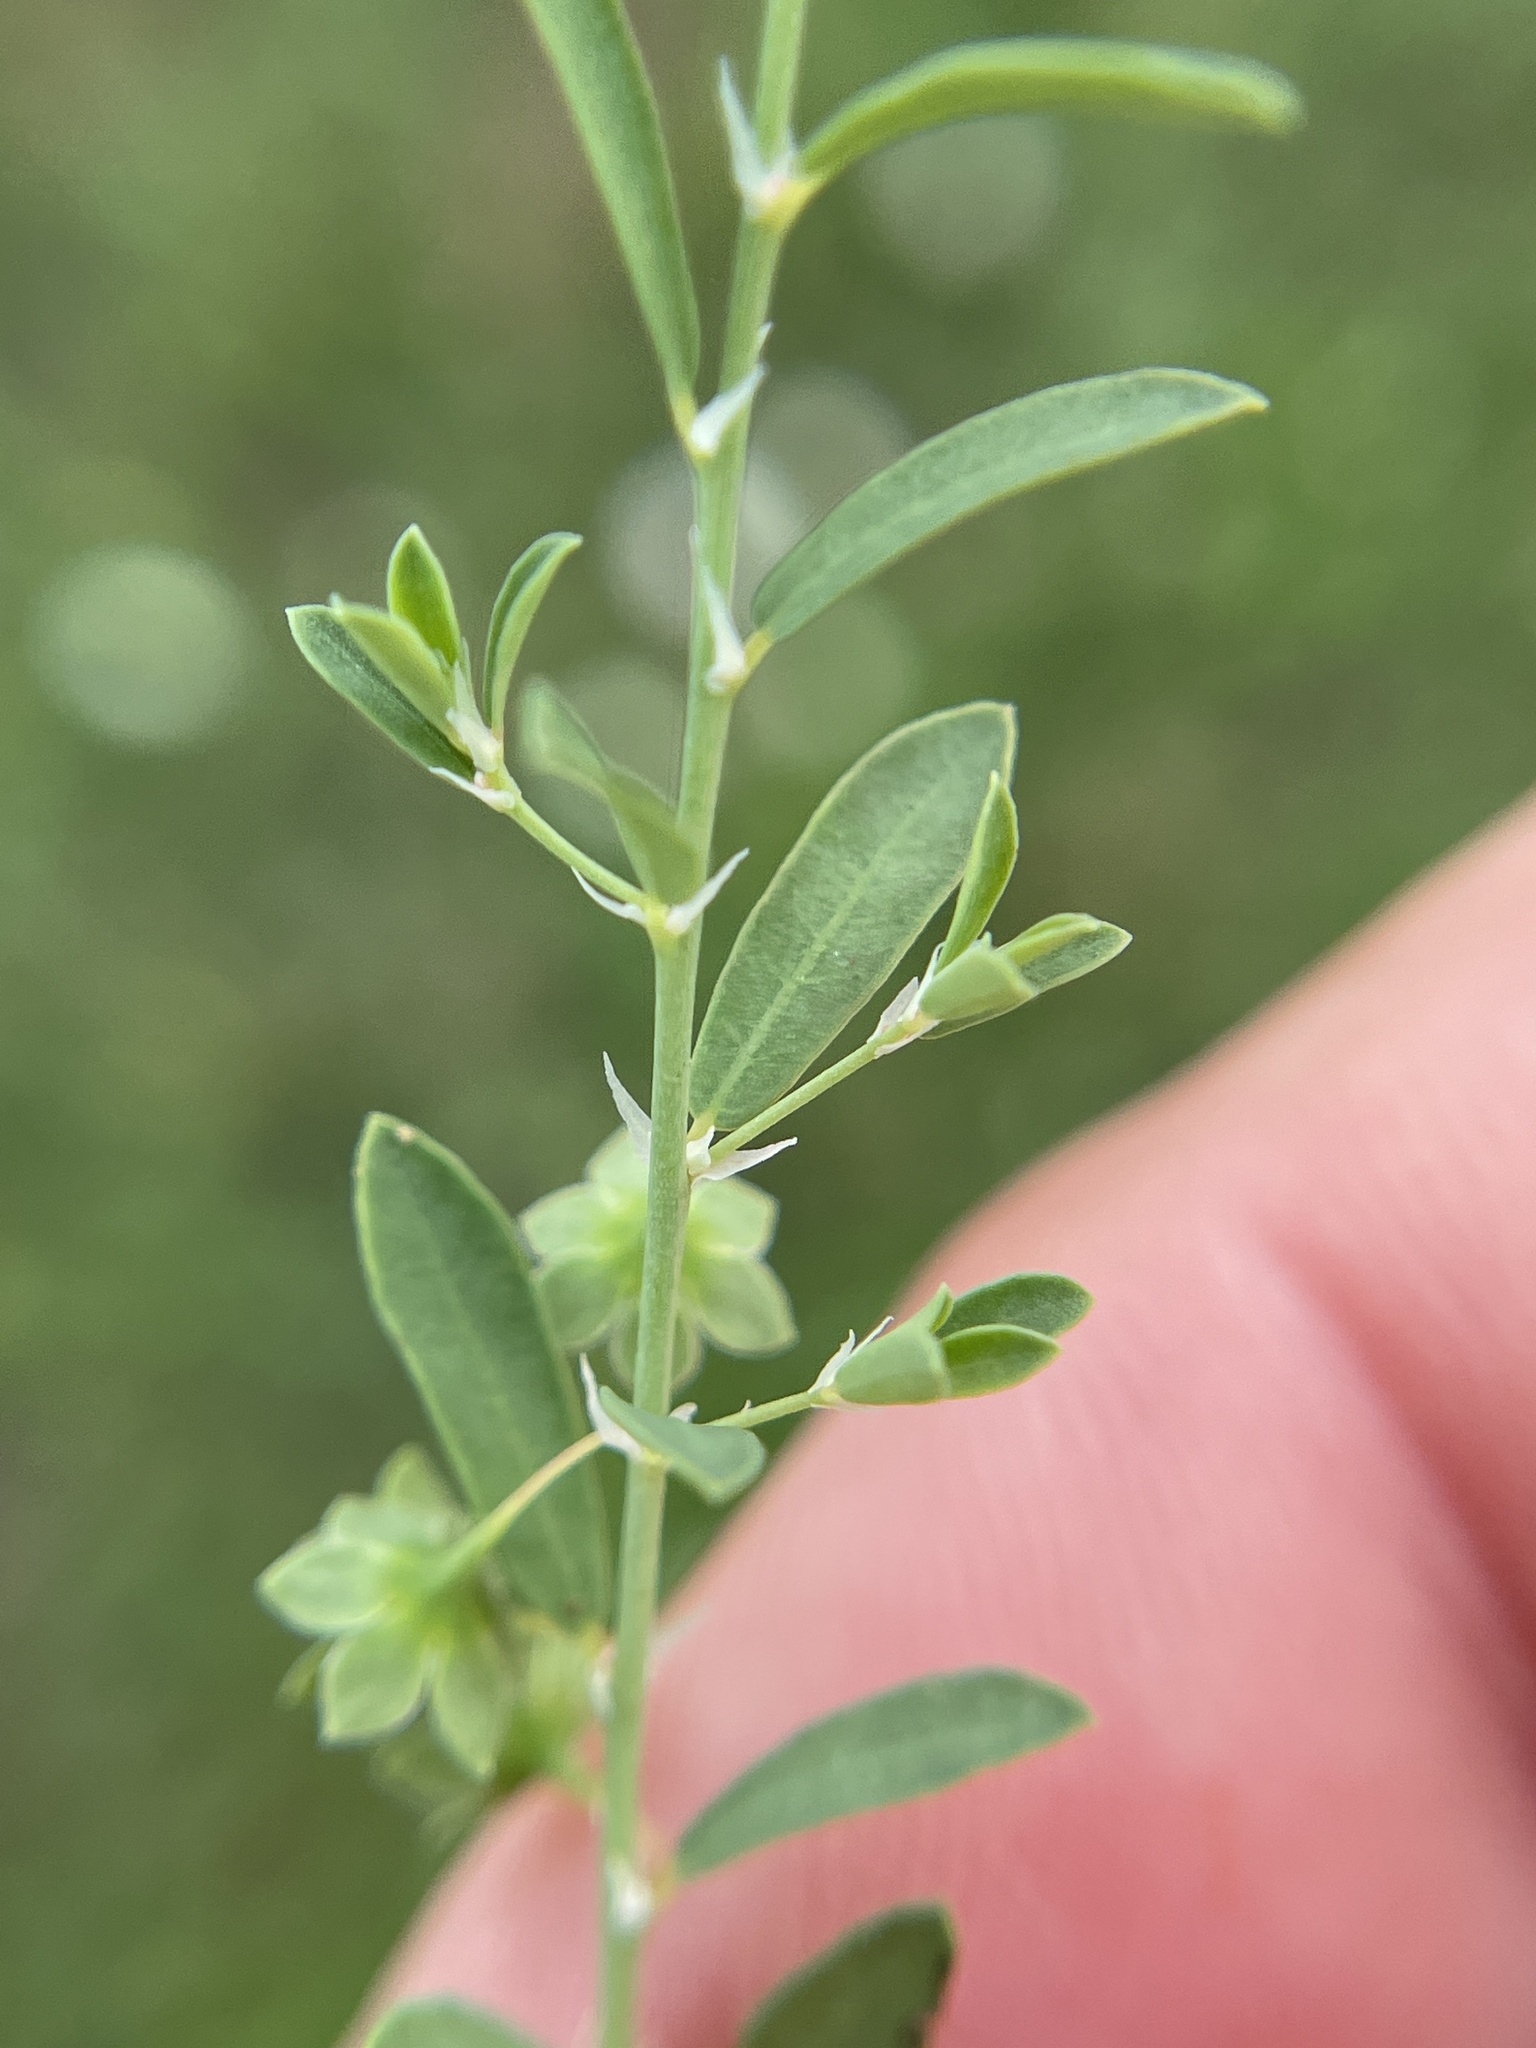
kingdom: Plantae
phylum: Tracheophyta
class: Magnoliopsida
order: Malpighiales
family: Phyllanthaceae
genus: Phyllanthus
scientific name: Phyllanthus polygonoides
